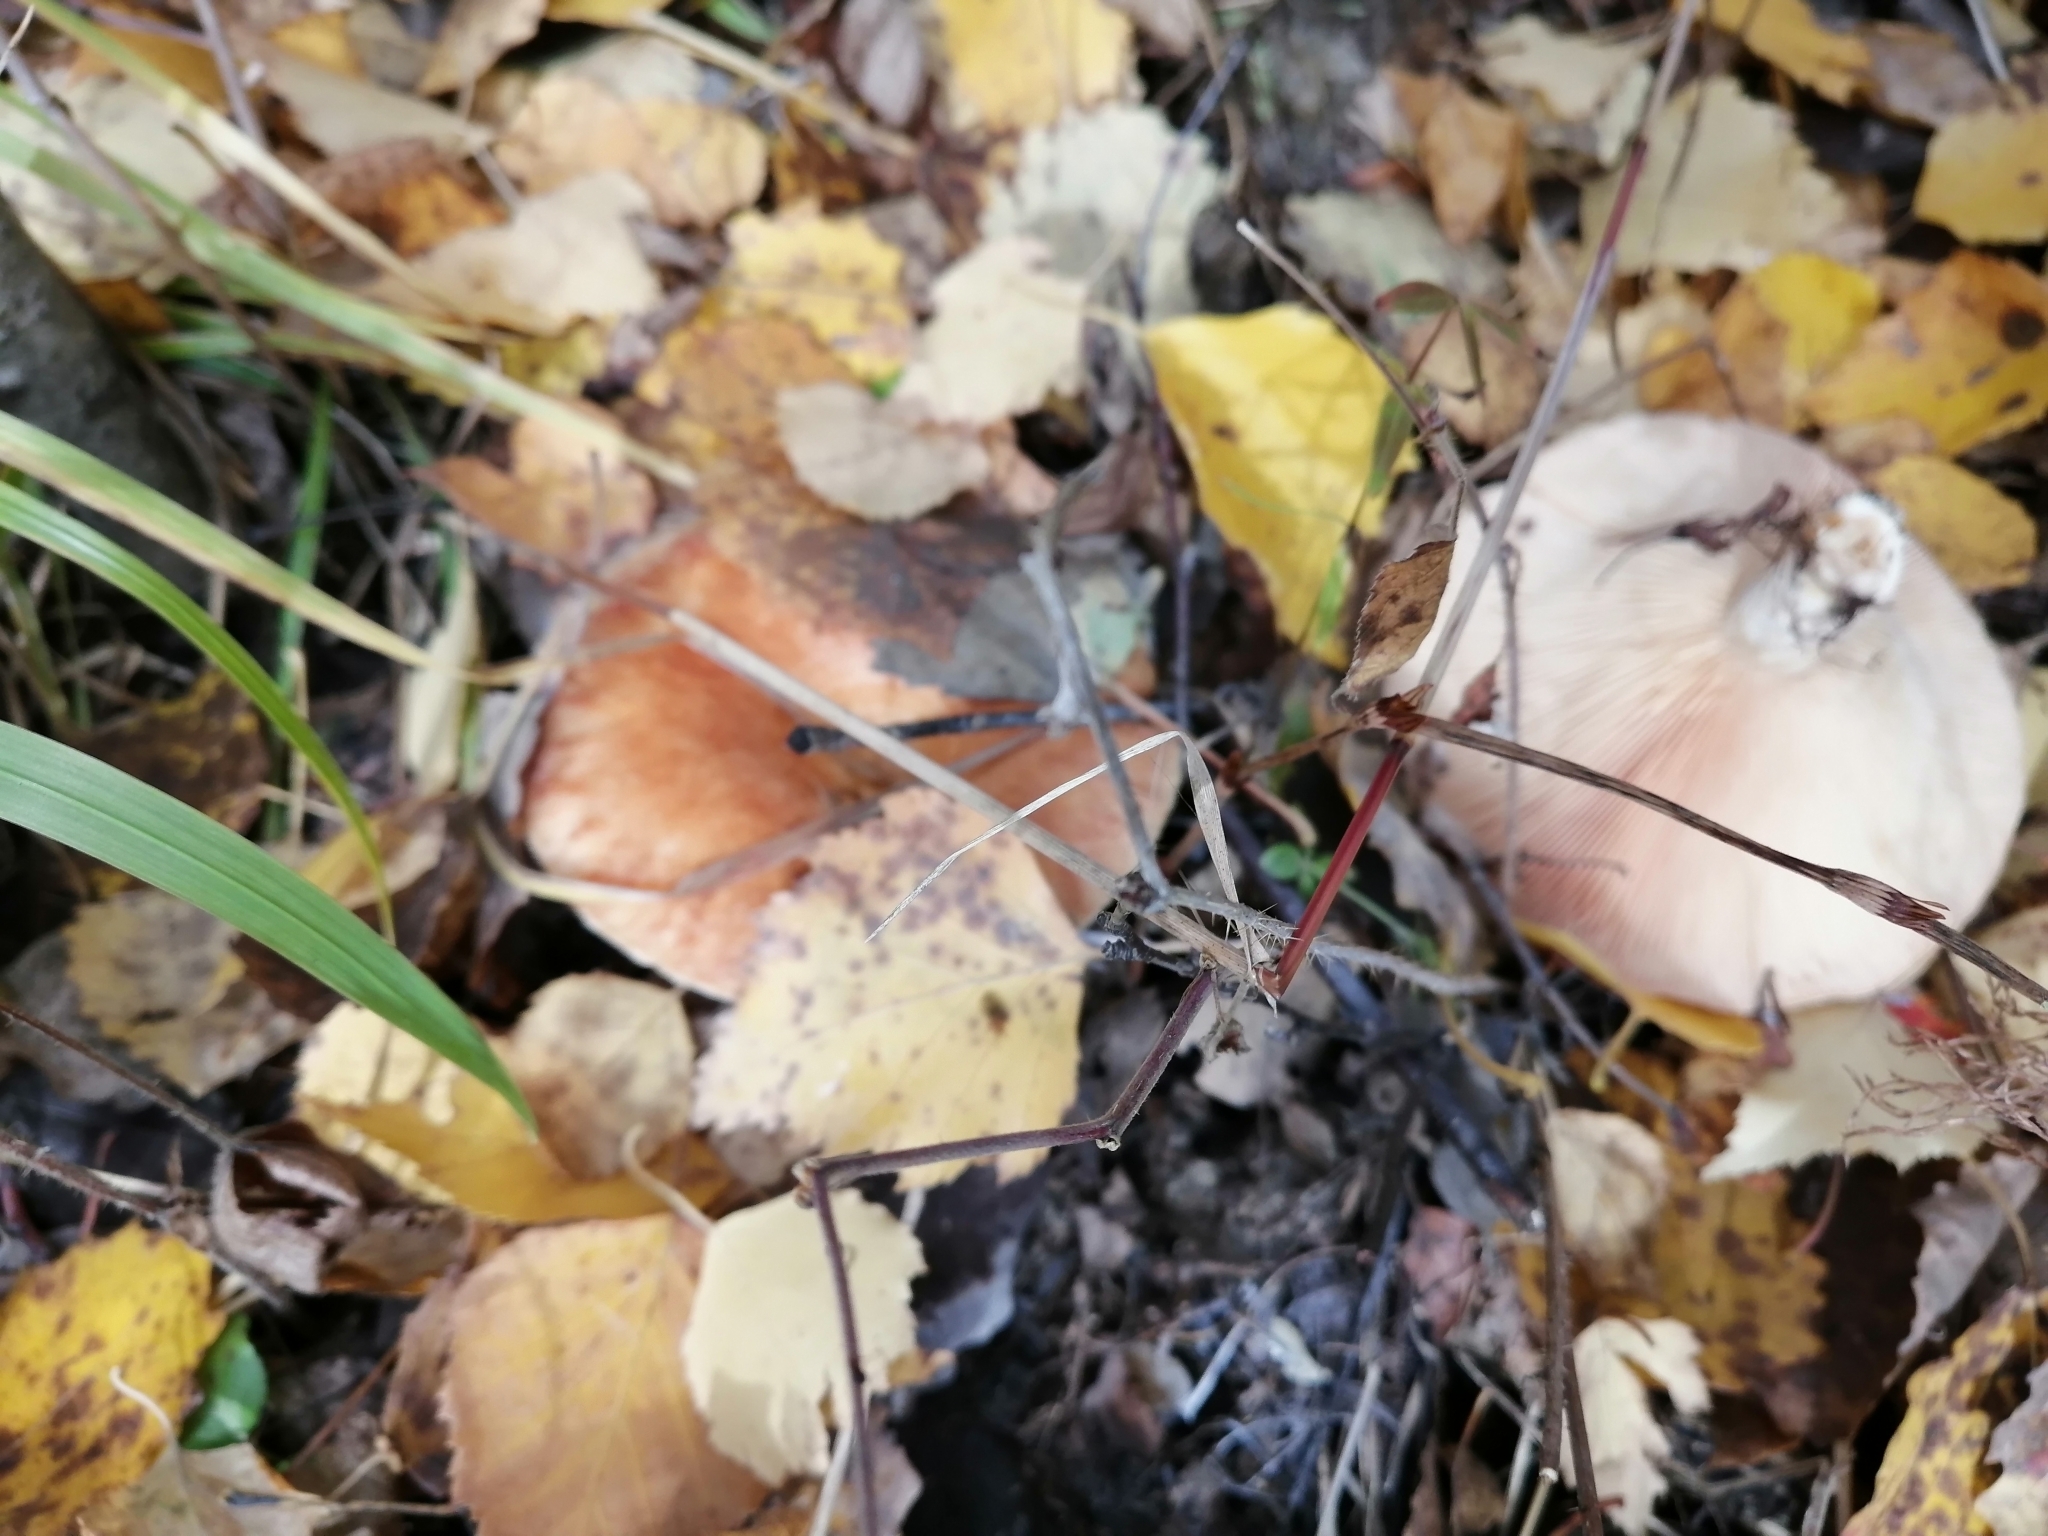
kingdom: Fungi
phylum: Basidiomycota
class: Agaricomycetes
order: Russulales
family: Russulaceae
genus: Lactarius
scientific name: Lactarius torminosus
